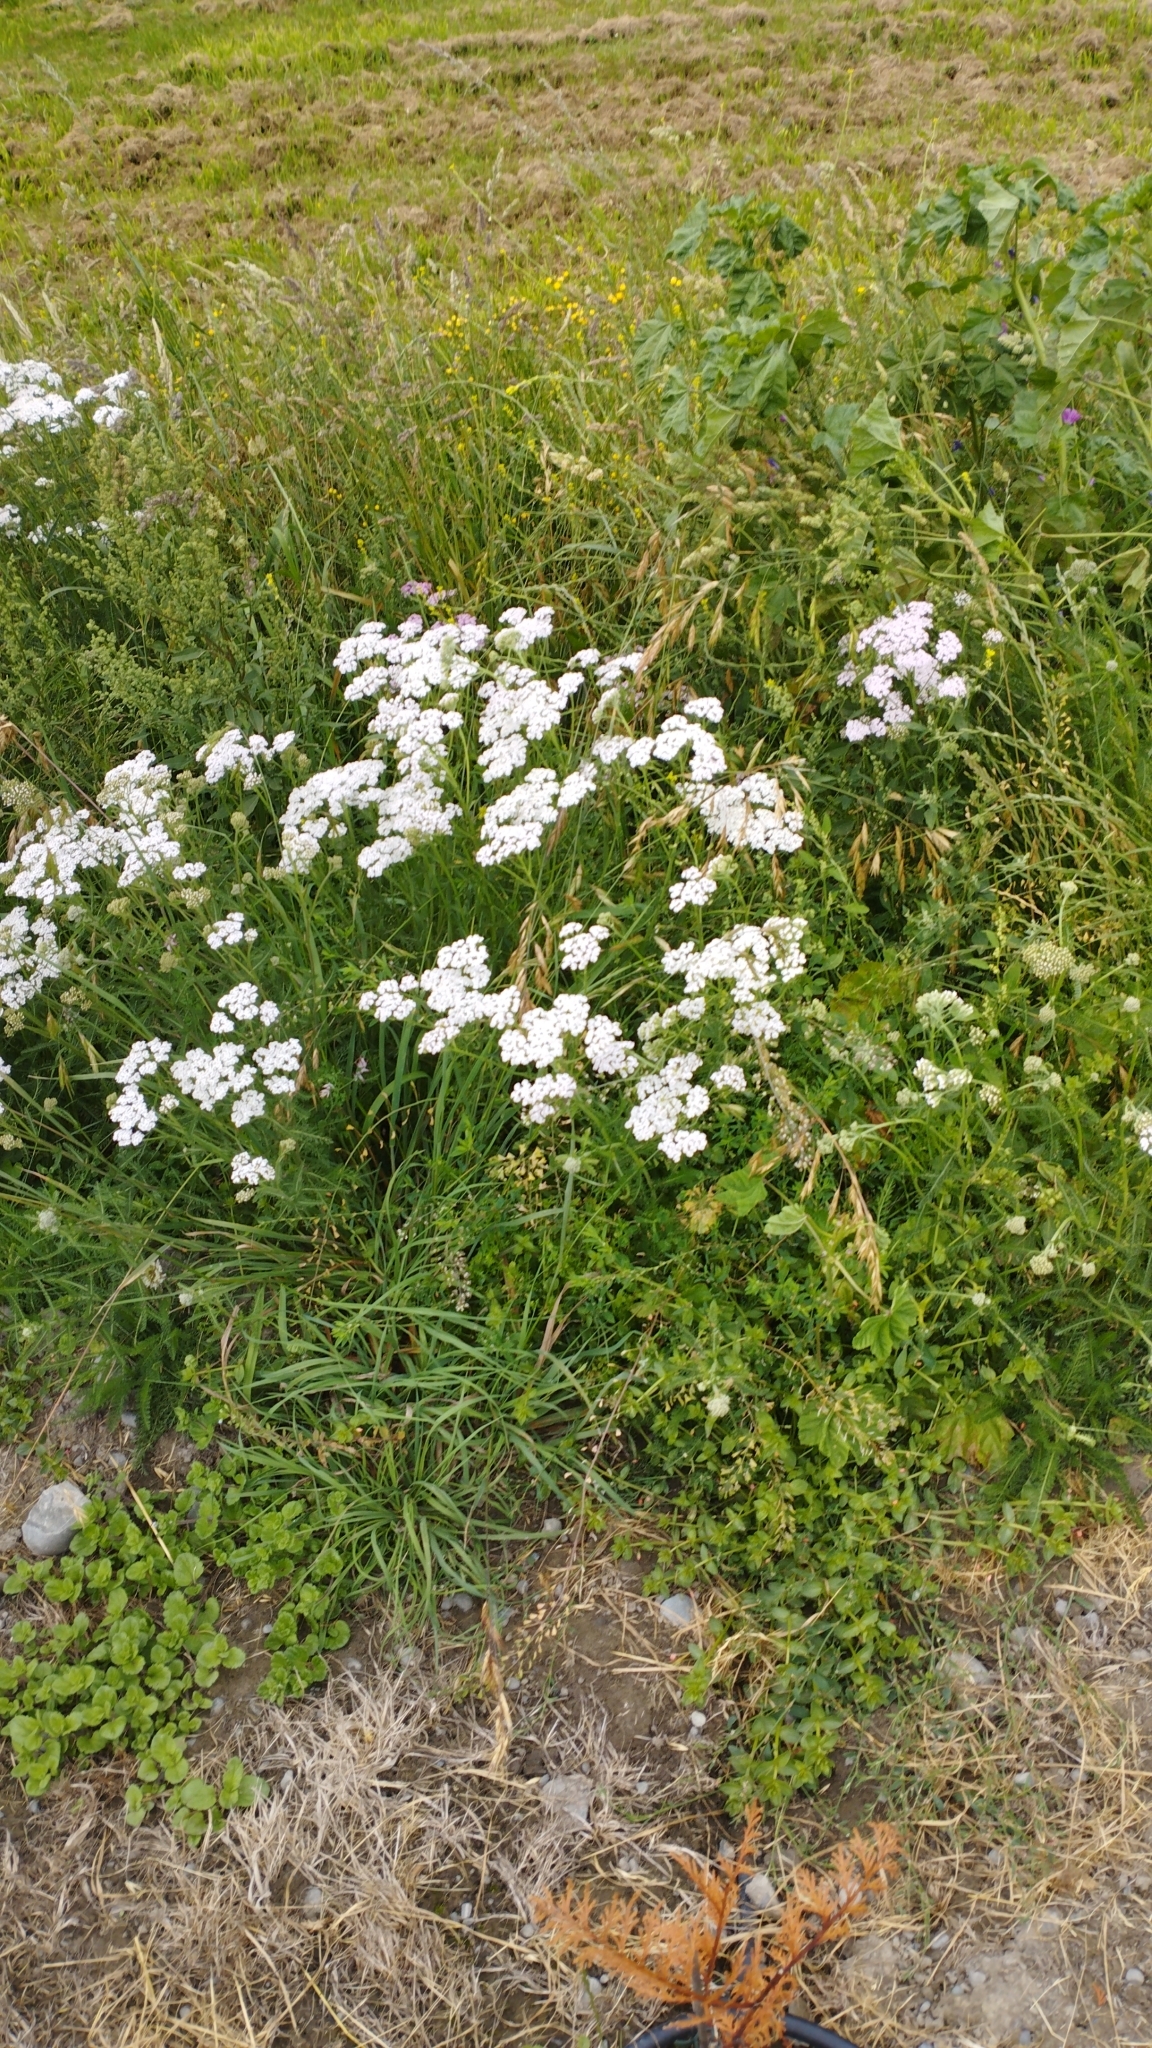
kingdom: Plantae
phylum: Tracheophyta
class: Magnoliopsida
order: Asterales
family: Asteraceae
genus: Achillea
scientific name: Achillea millefolium
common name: Yarrow
